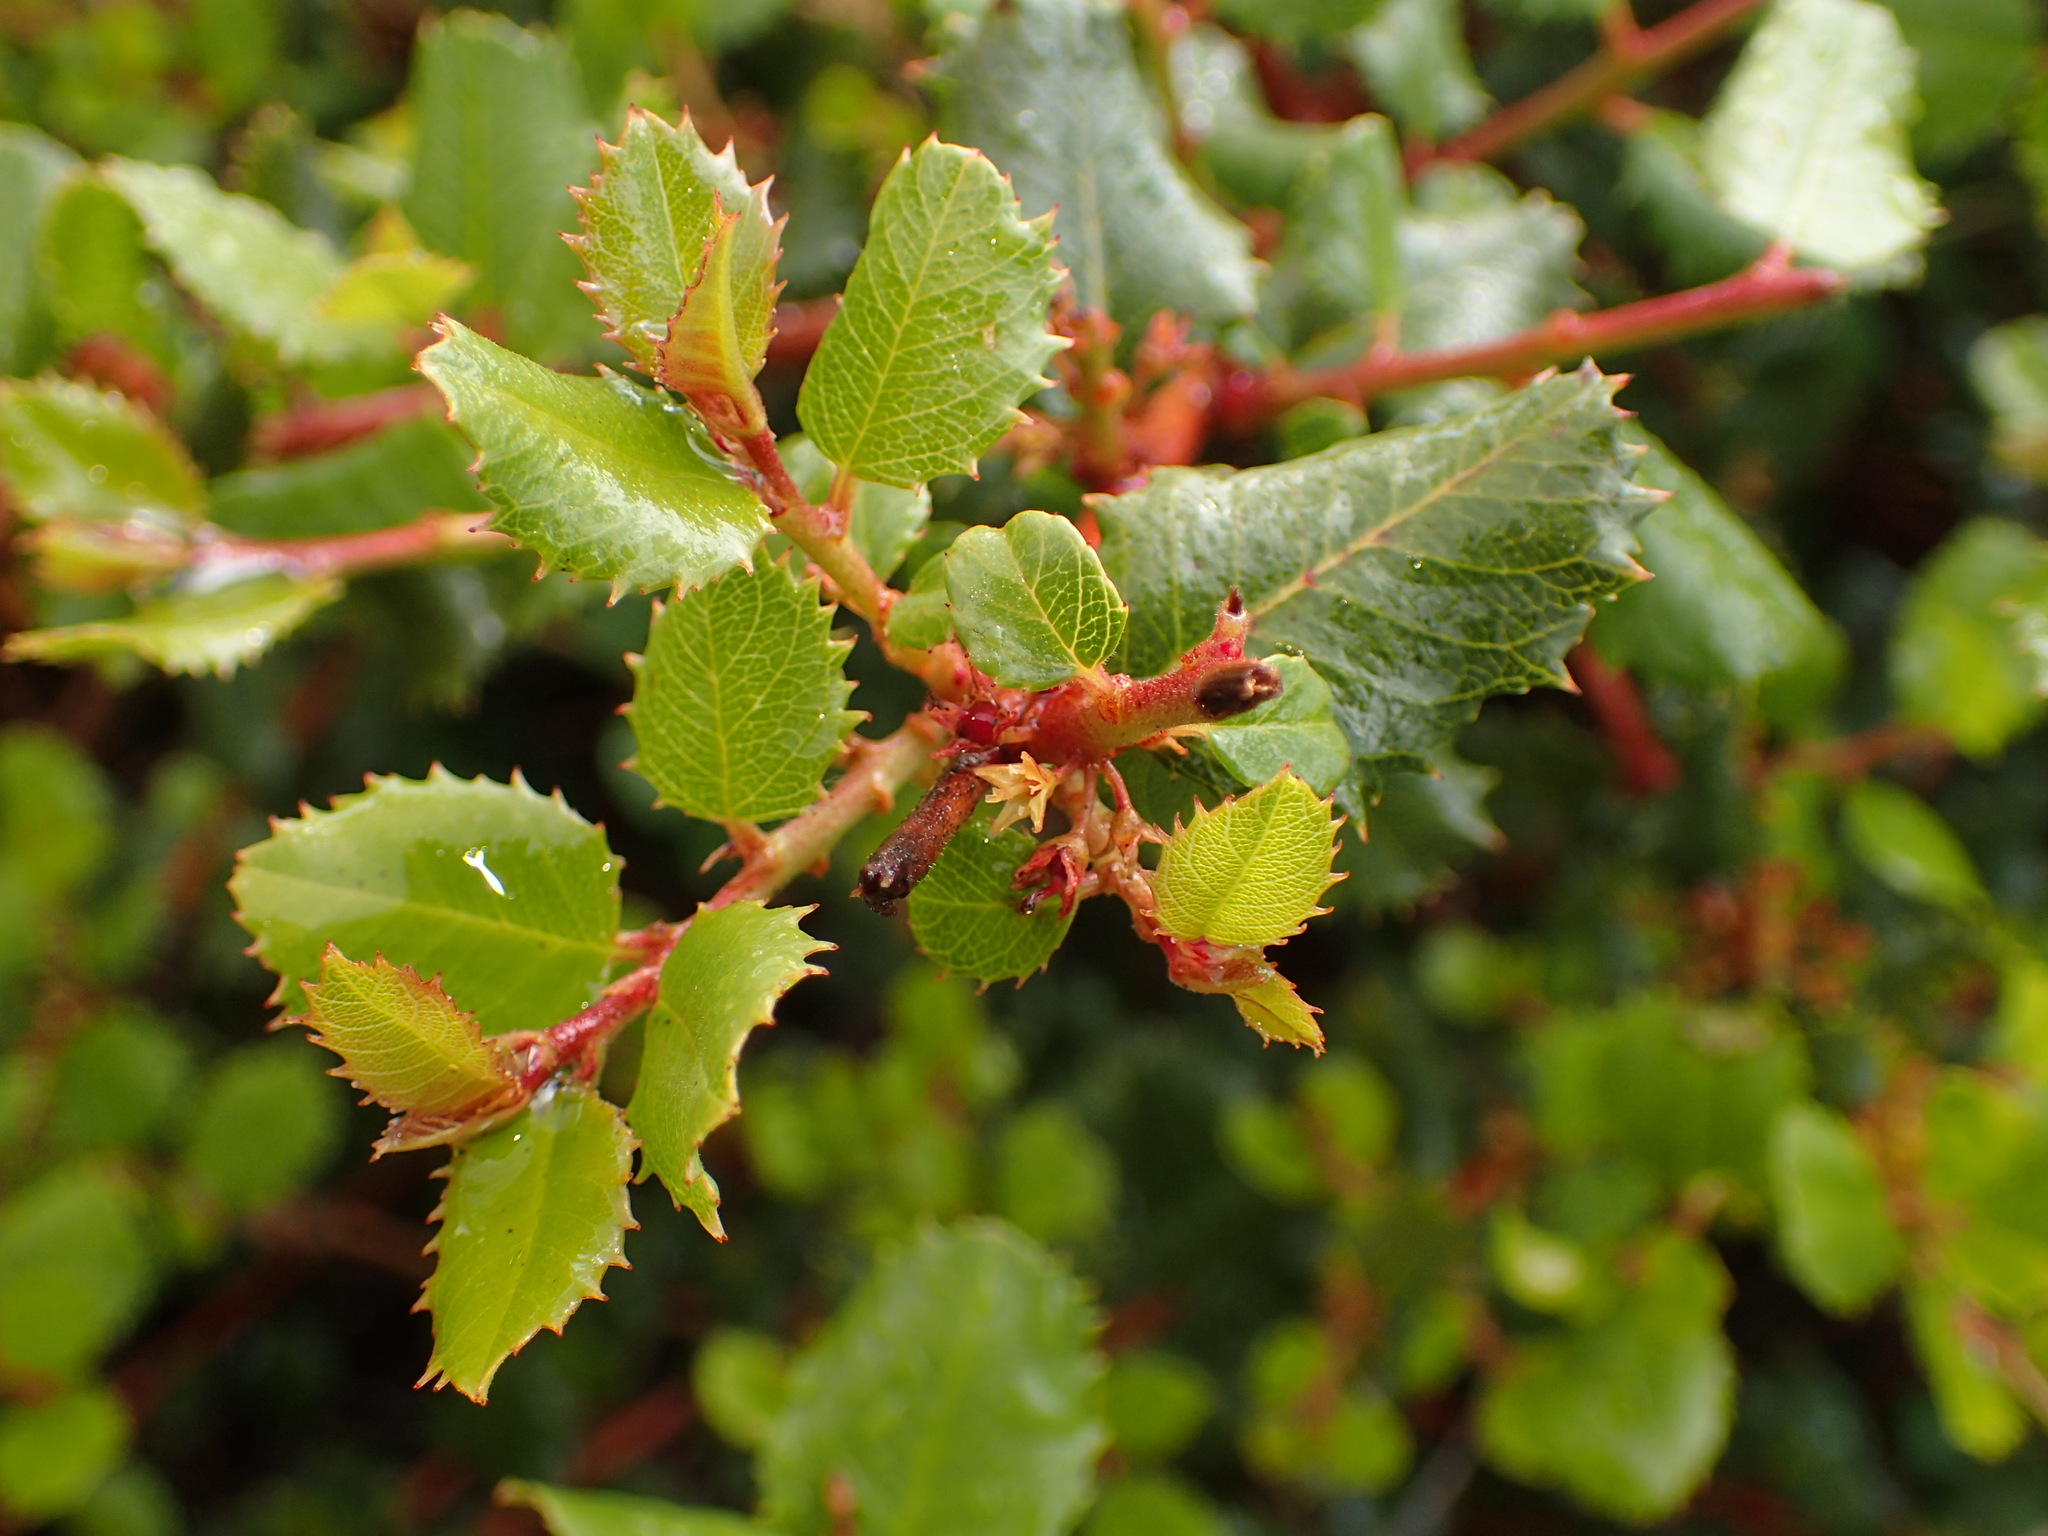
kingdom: Plantae
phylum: Tracheophyta
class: Magnoliopsida
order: Rosales
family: Rhamnaceae
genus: Endotropis
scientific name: Endotropis crocea
